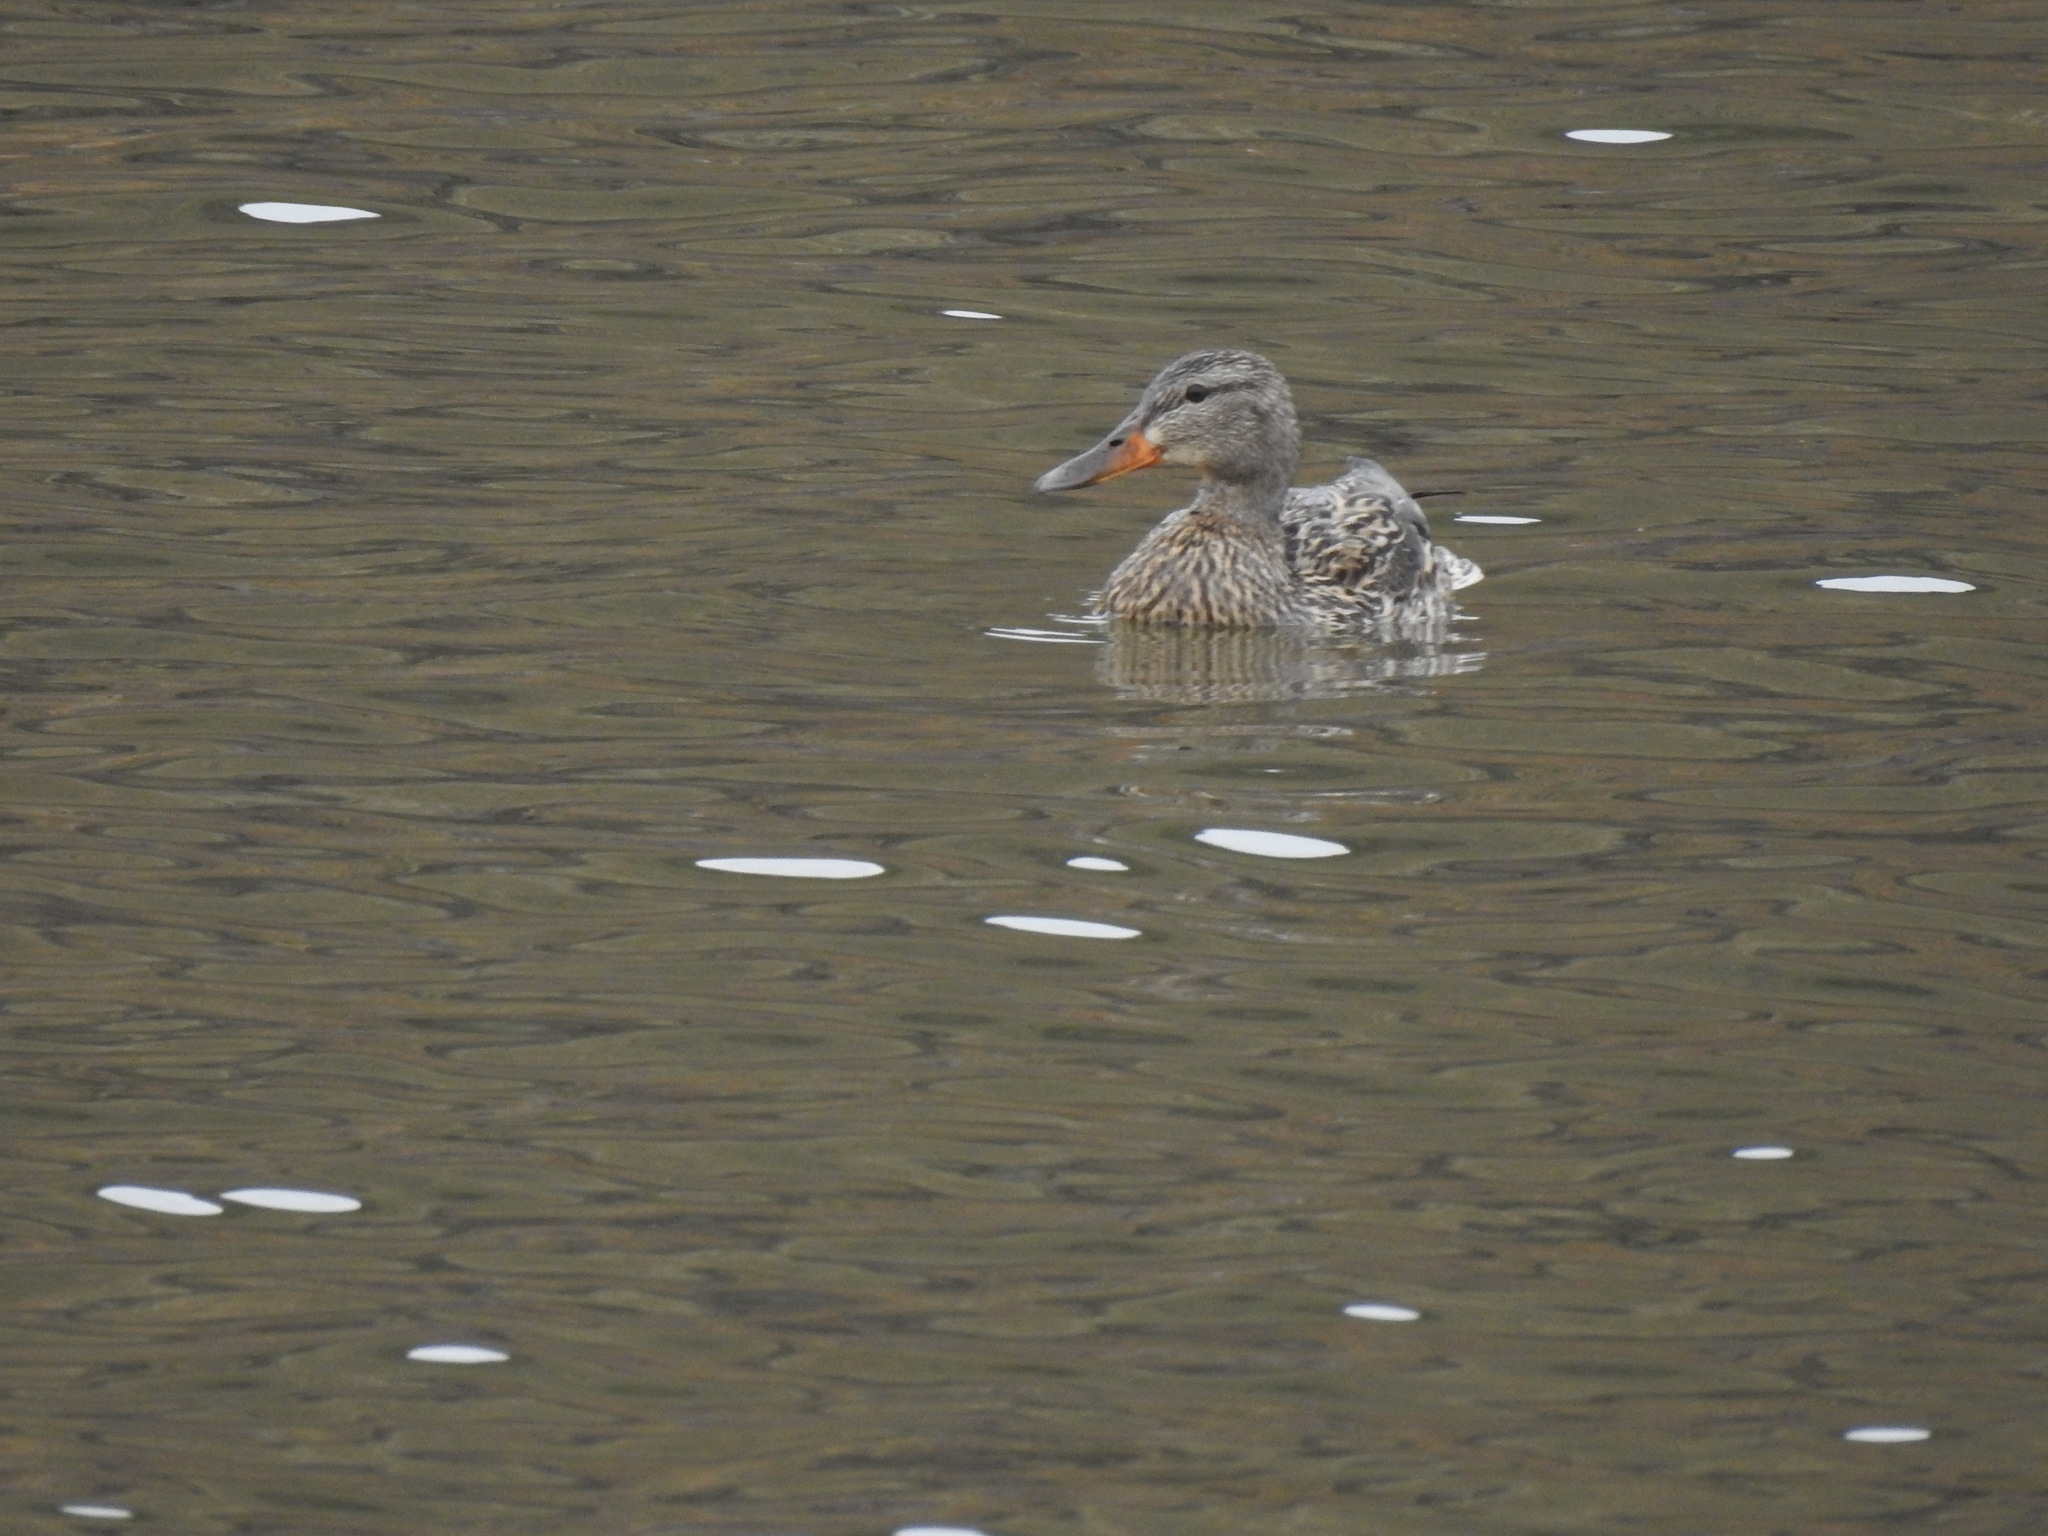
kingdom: Animalia
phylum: Chordata
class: Aves
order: Anseriformes
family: Anatidae
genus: Anas
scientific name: Anas platyrhynchos
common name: Mallard
